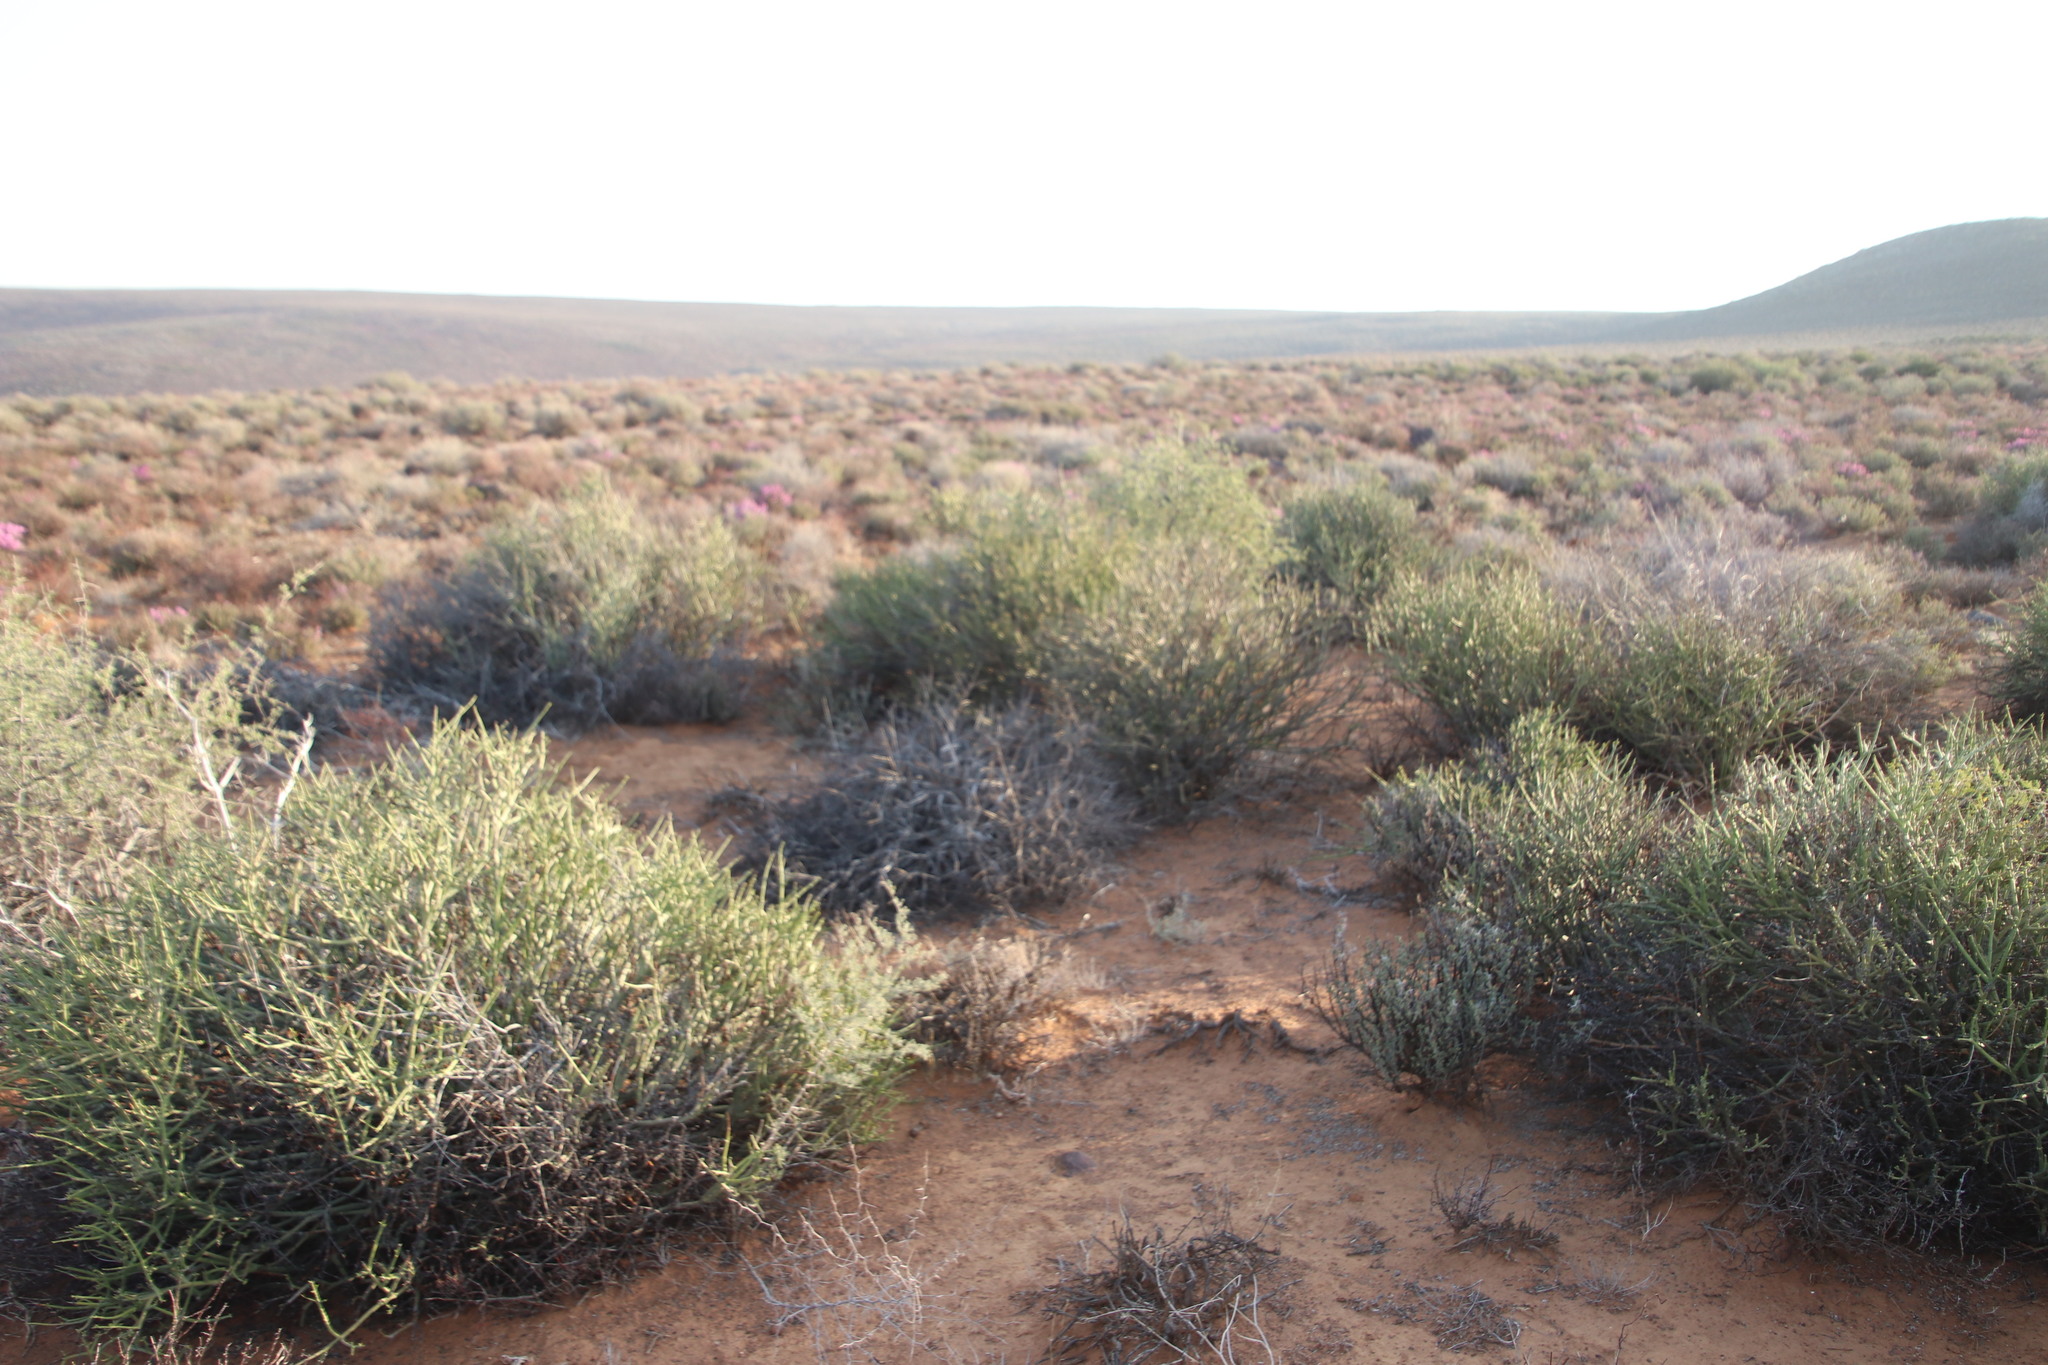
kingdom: Plantae
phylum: Tracheophyta
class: Magnoliopsida
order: Malpighiales
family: Euphorbiaceae
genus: Euphorbia
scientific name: Euphorbia rhombifolia
